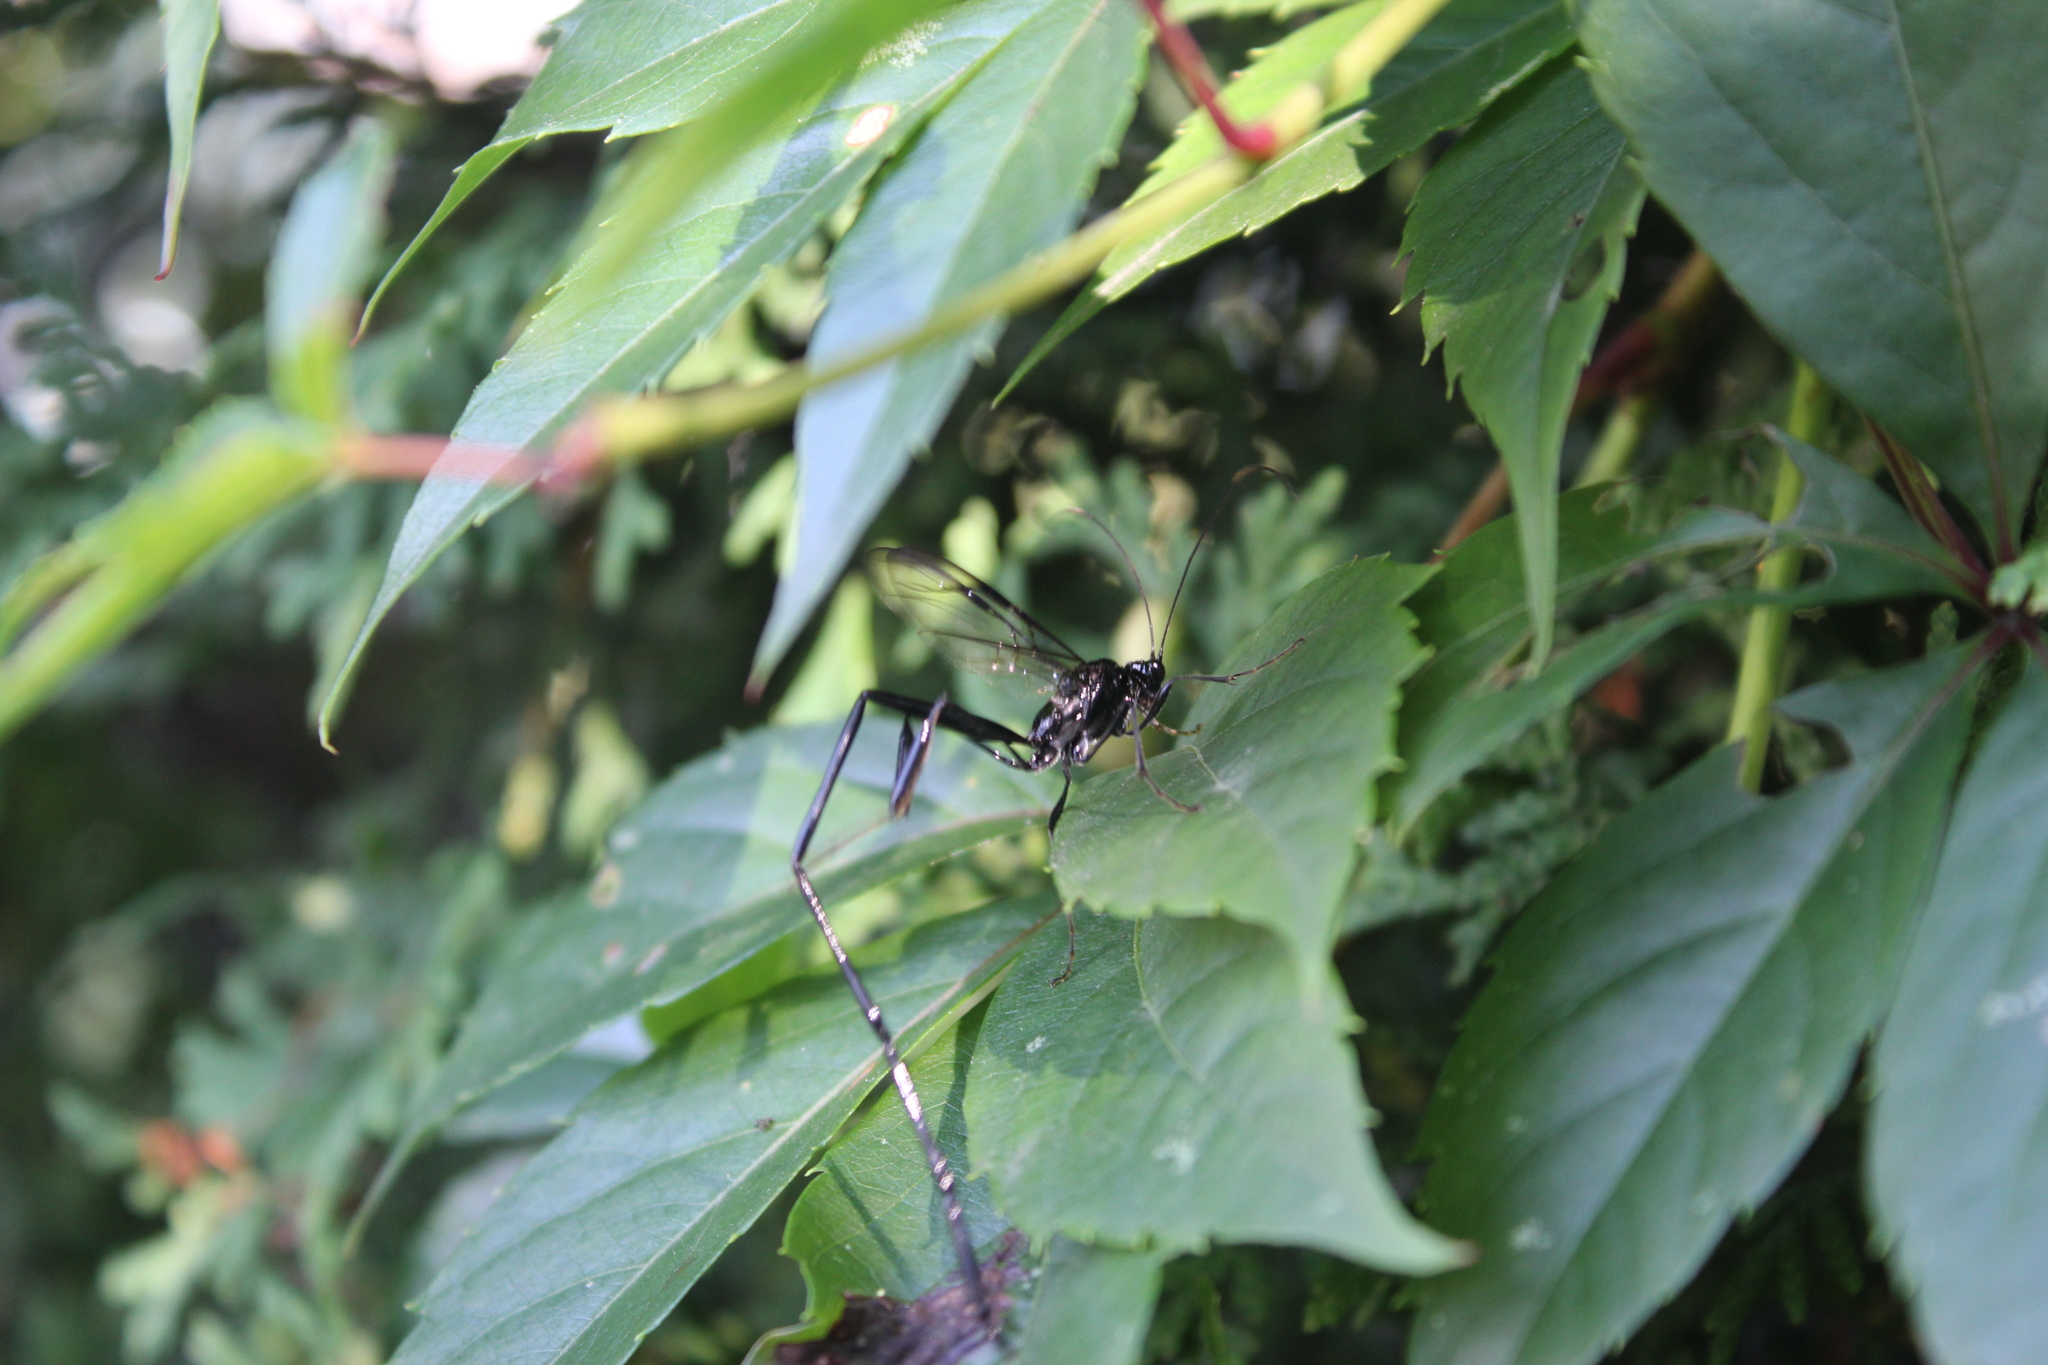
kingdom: Animalia
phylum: Arthropoda
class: Insecta
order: Hymenoptera
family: Pelecinidae
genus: Pelecinus
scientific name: Pelecinus polyturator
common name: American pelecinid wasp
